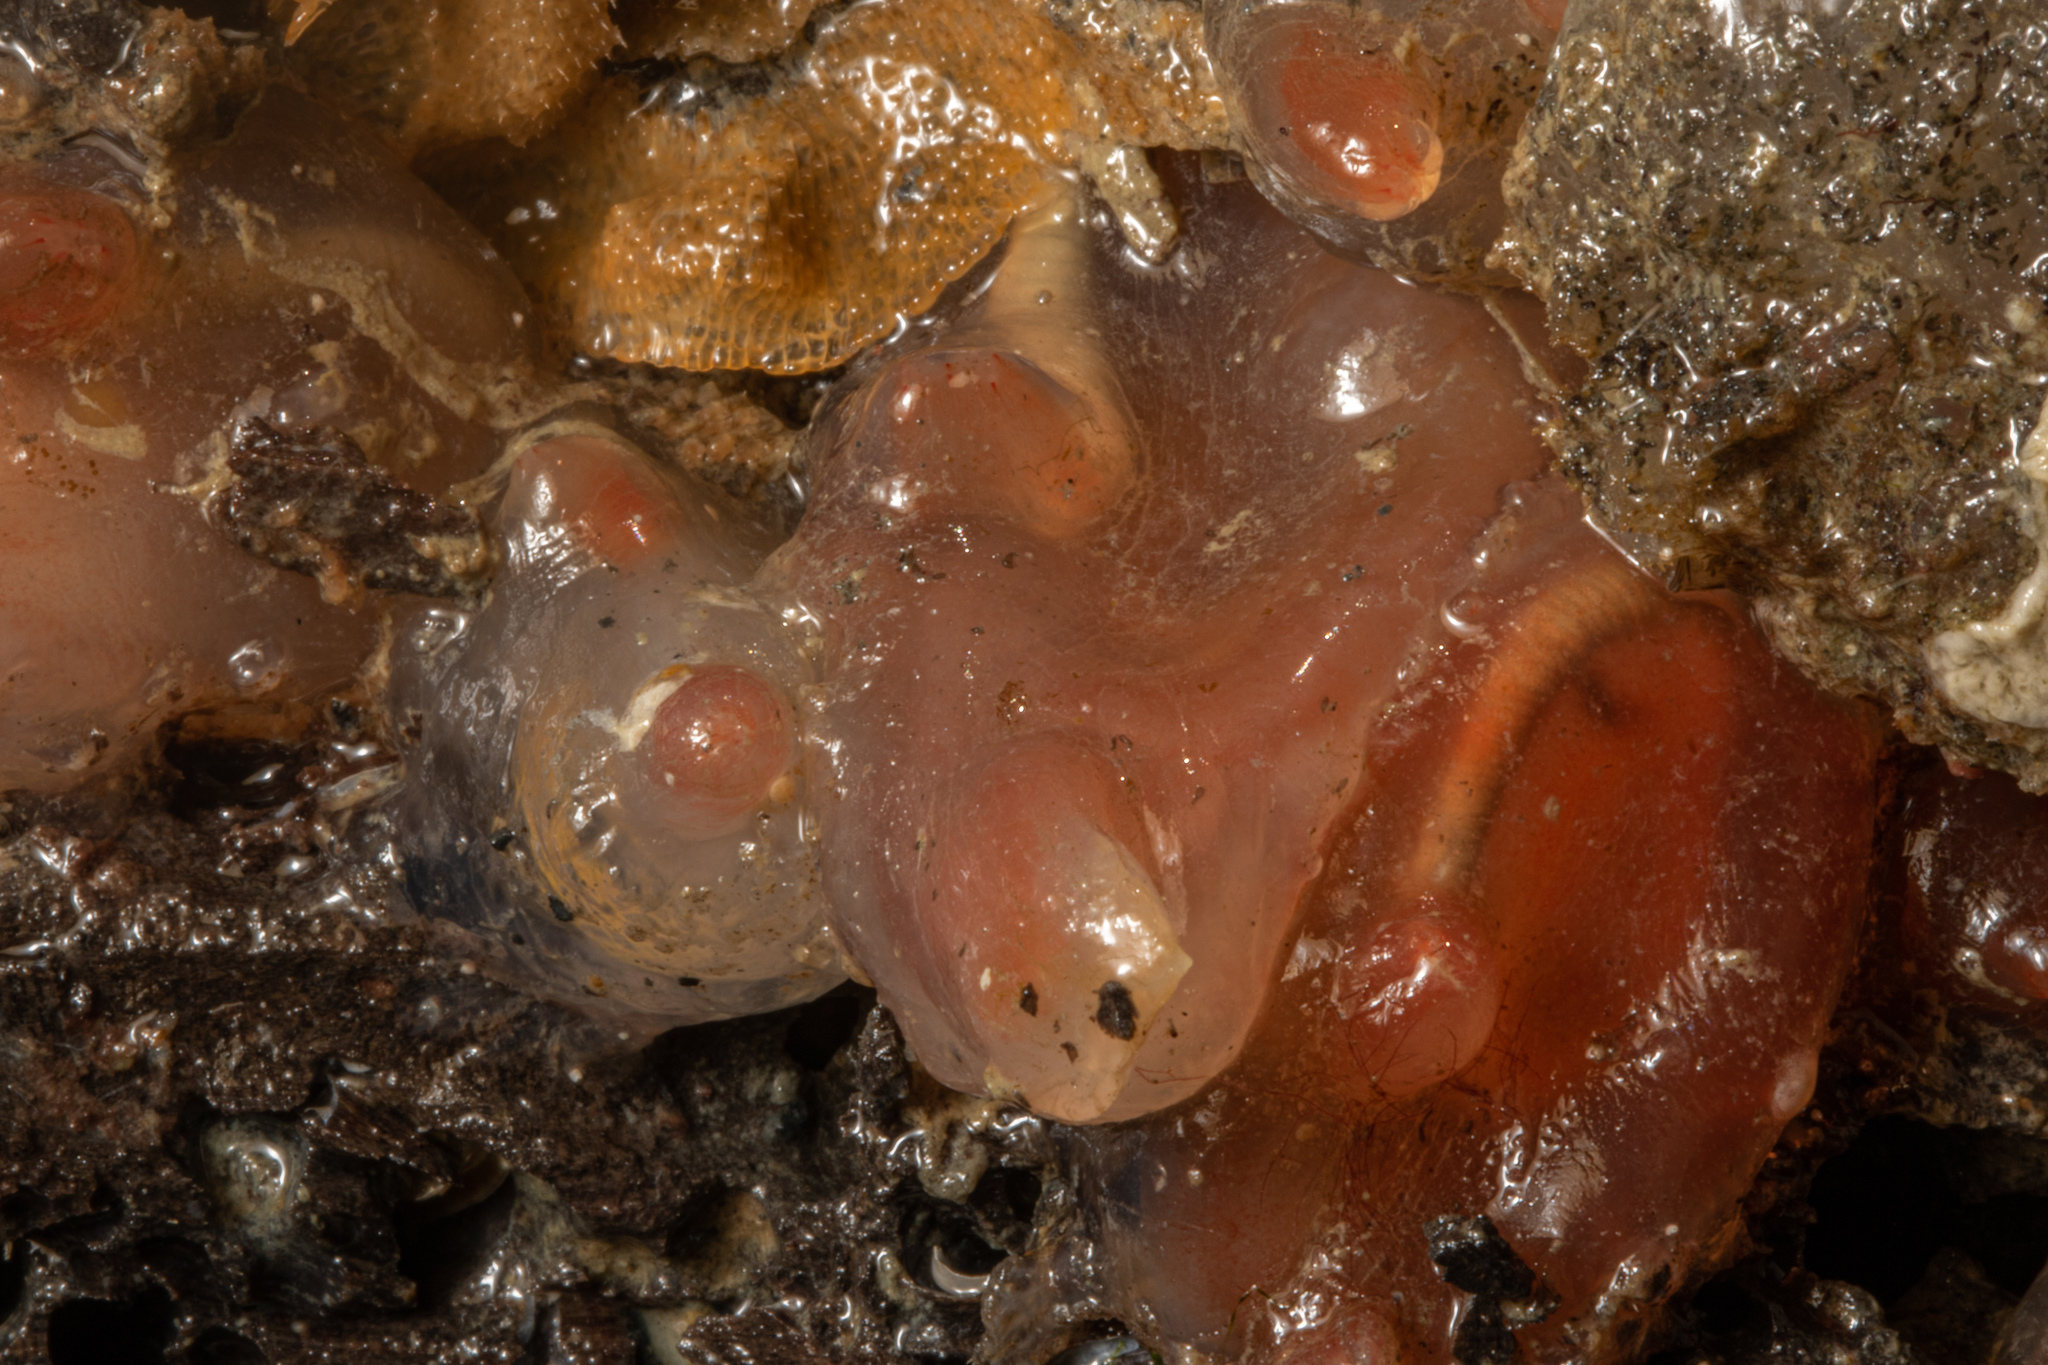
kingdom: Animalia
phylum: Chordata
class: Ascidiacea
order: Phlebobranchia
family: Corellidae
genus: Corella
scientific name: Corella eumyota
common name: Orange-tipped sea squirt
